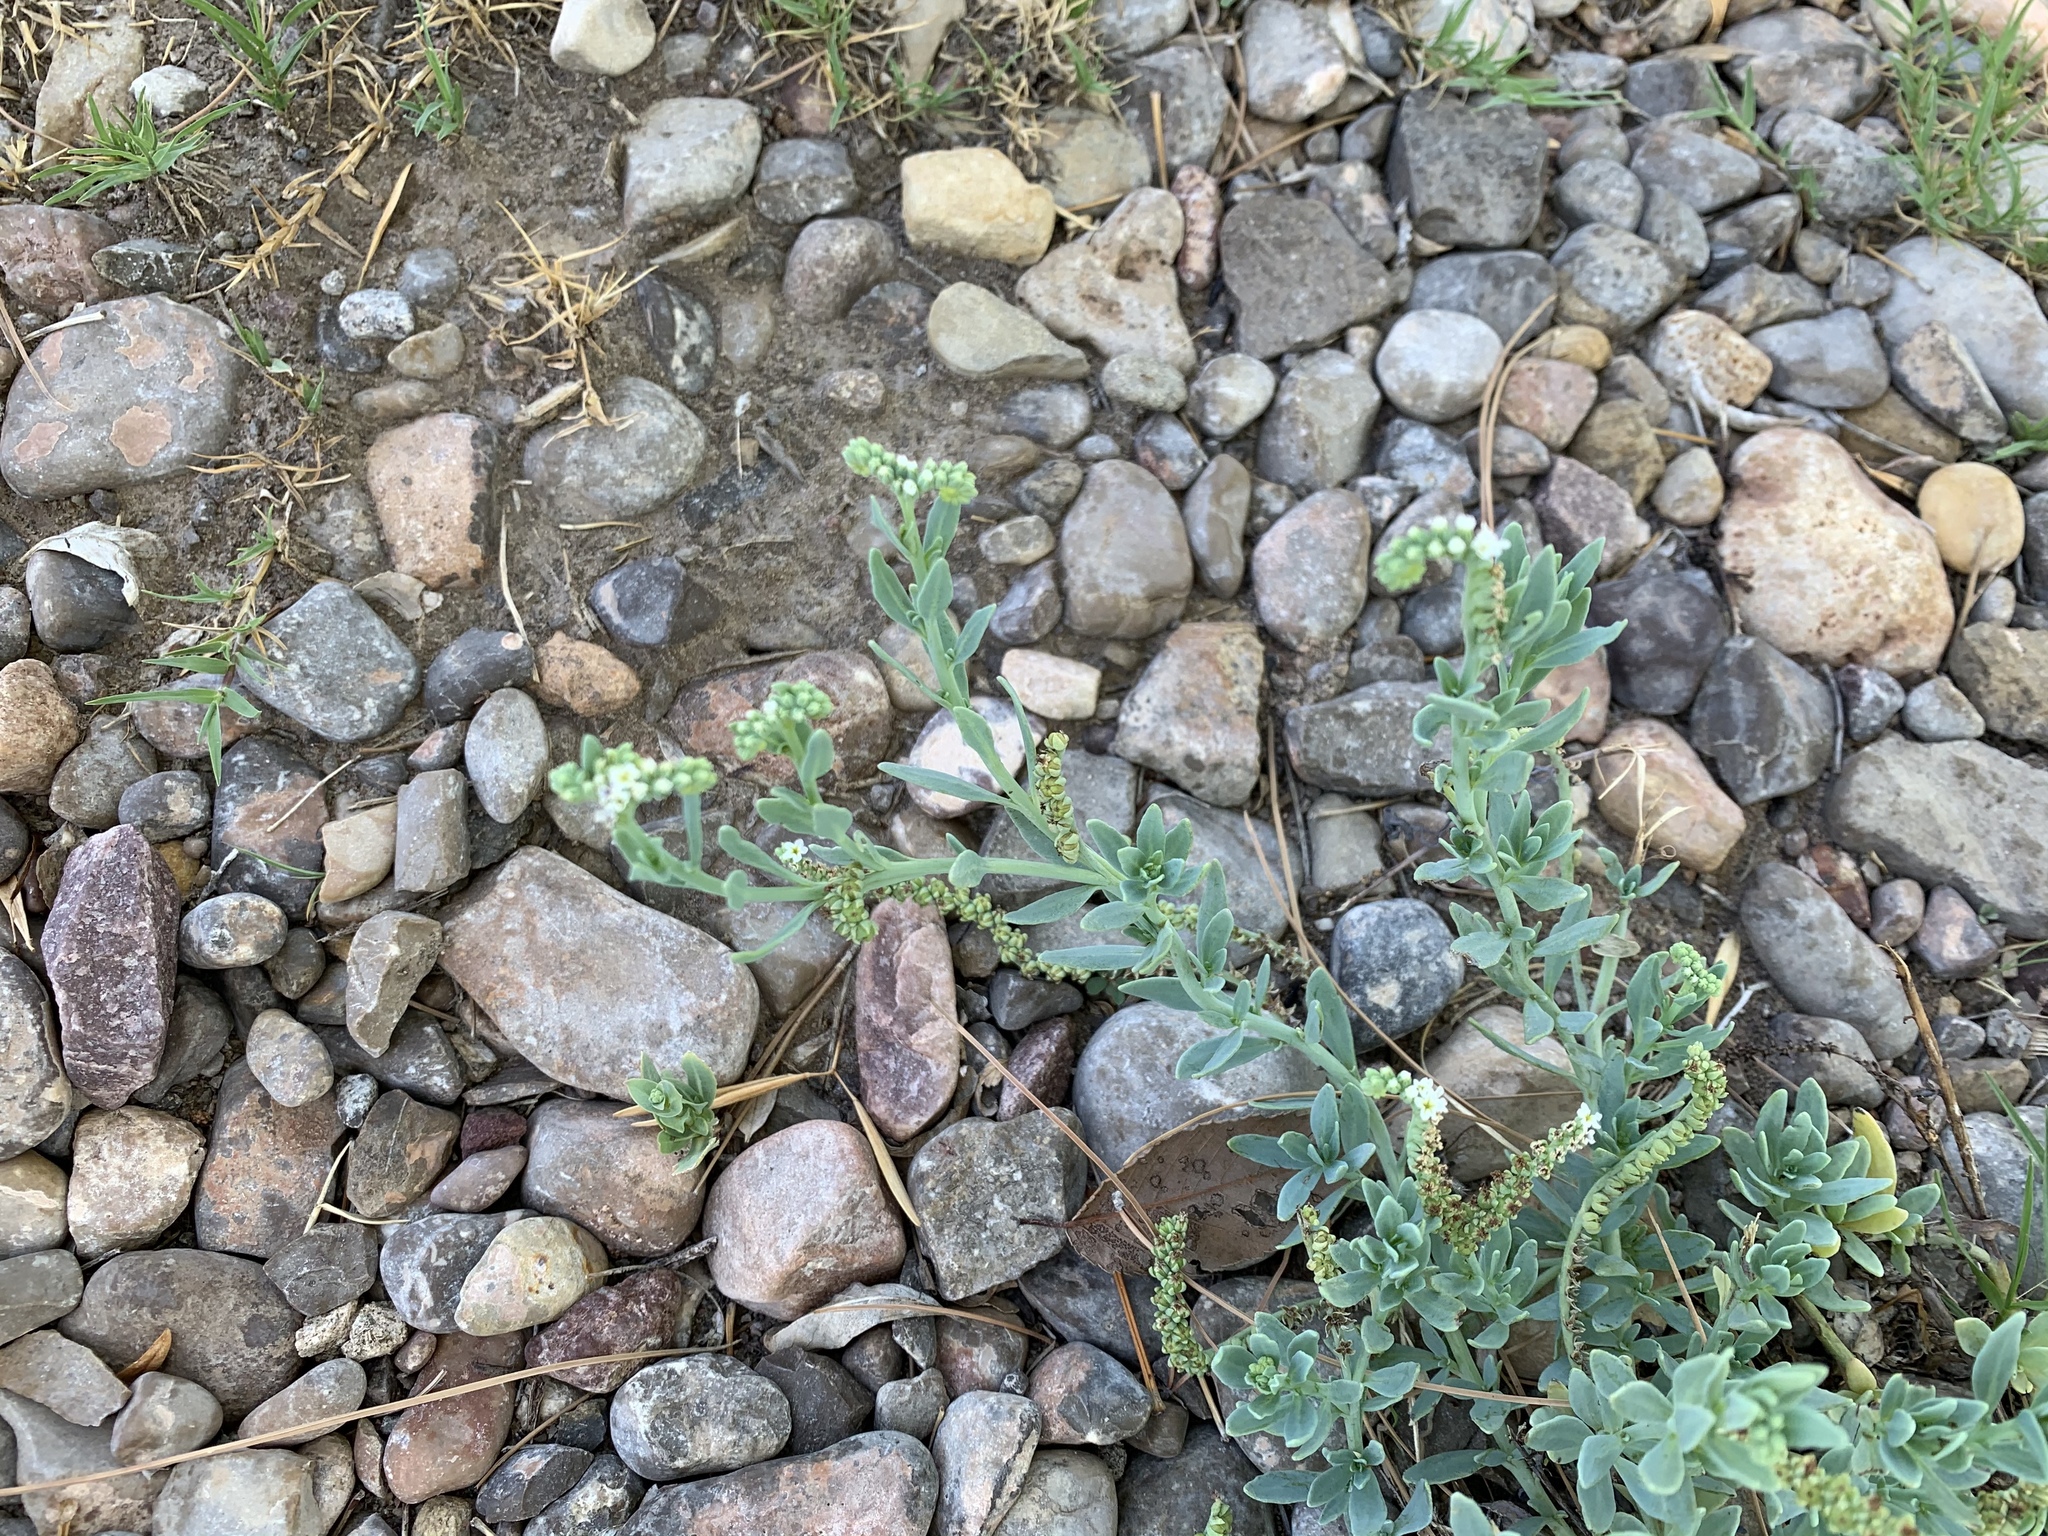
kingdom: Plantae
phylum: Tracheophyta
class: Magnoliopsida
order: Boraginales
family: Heliotropiaceae
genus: Heliotropium
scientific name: Heliotropium curassavicum
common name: Seaside heliotrope
